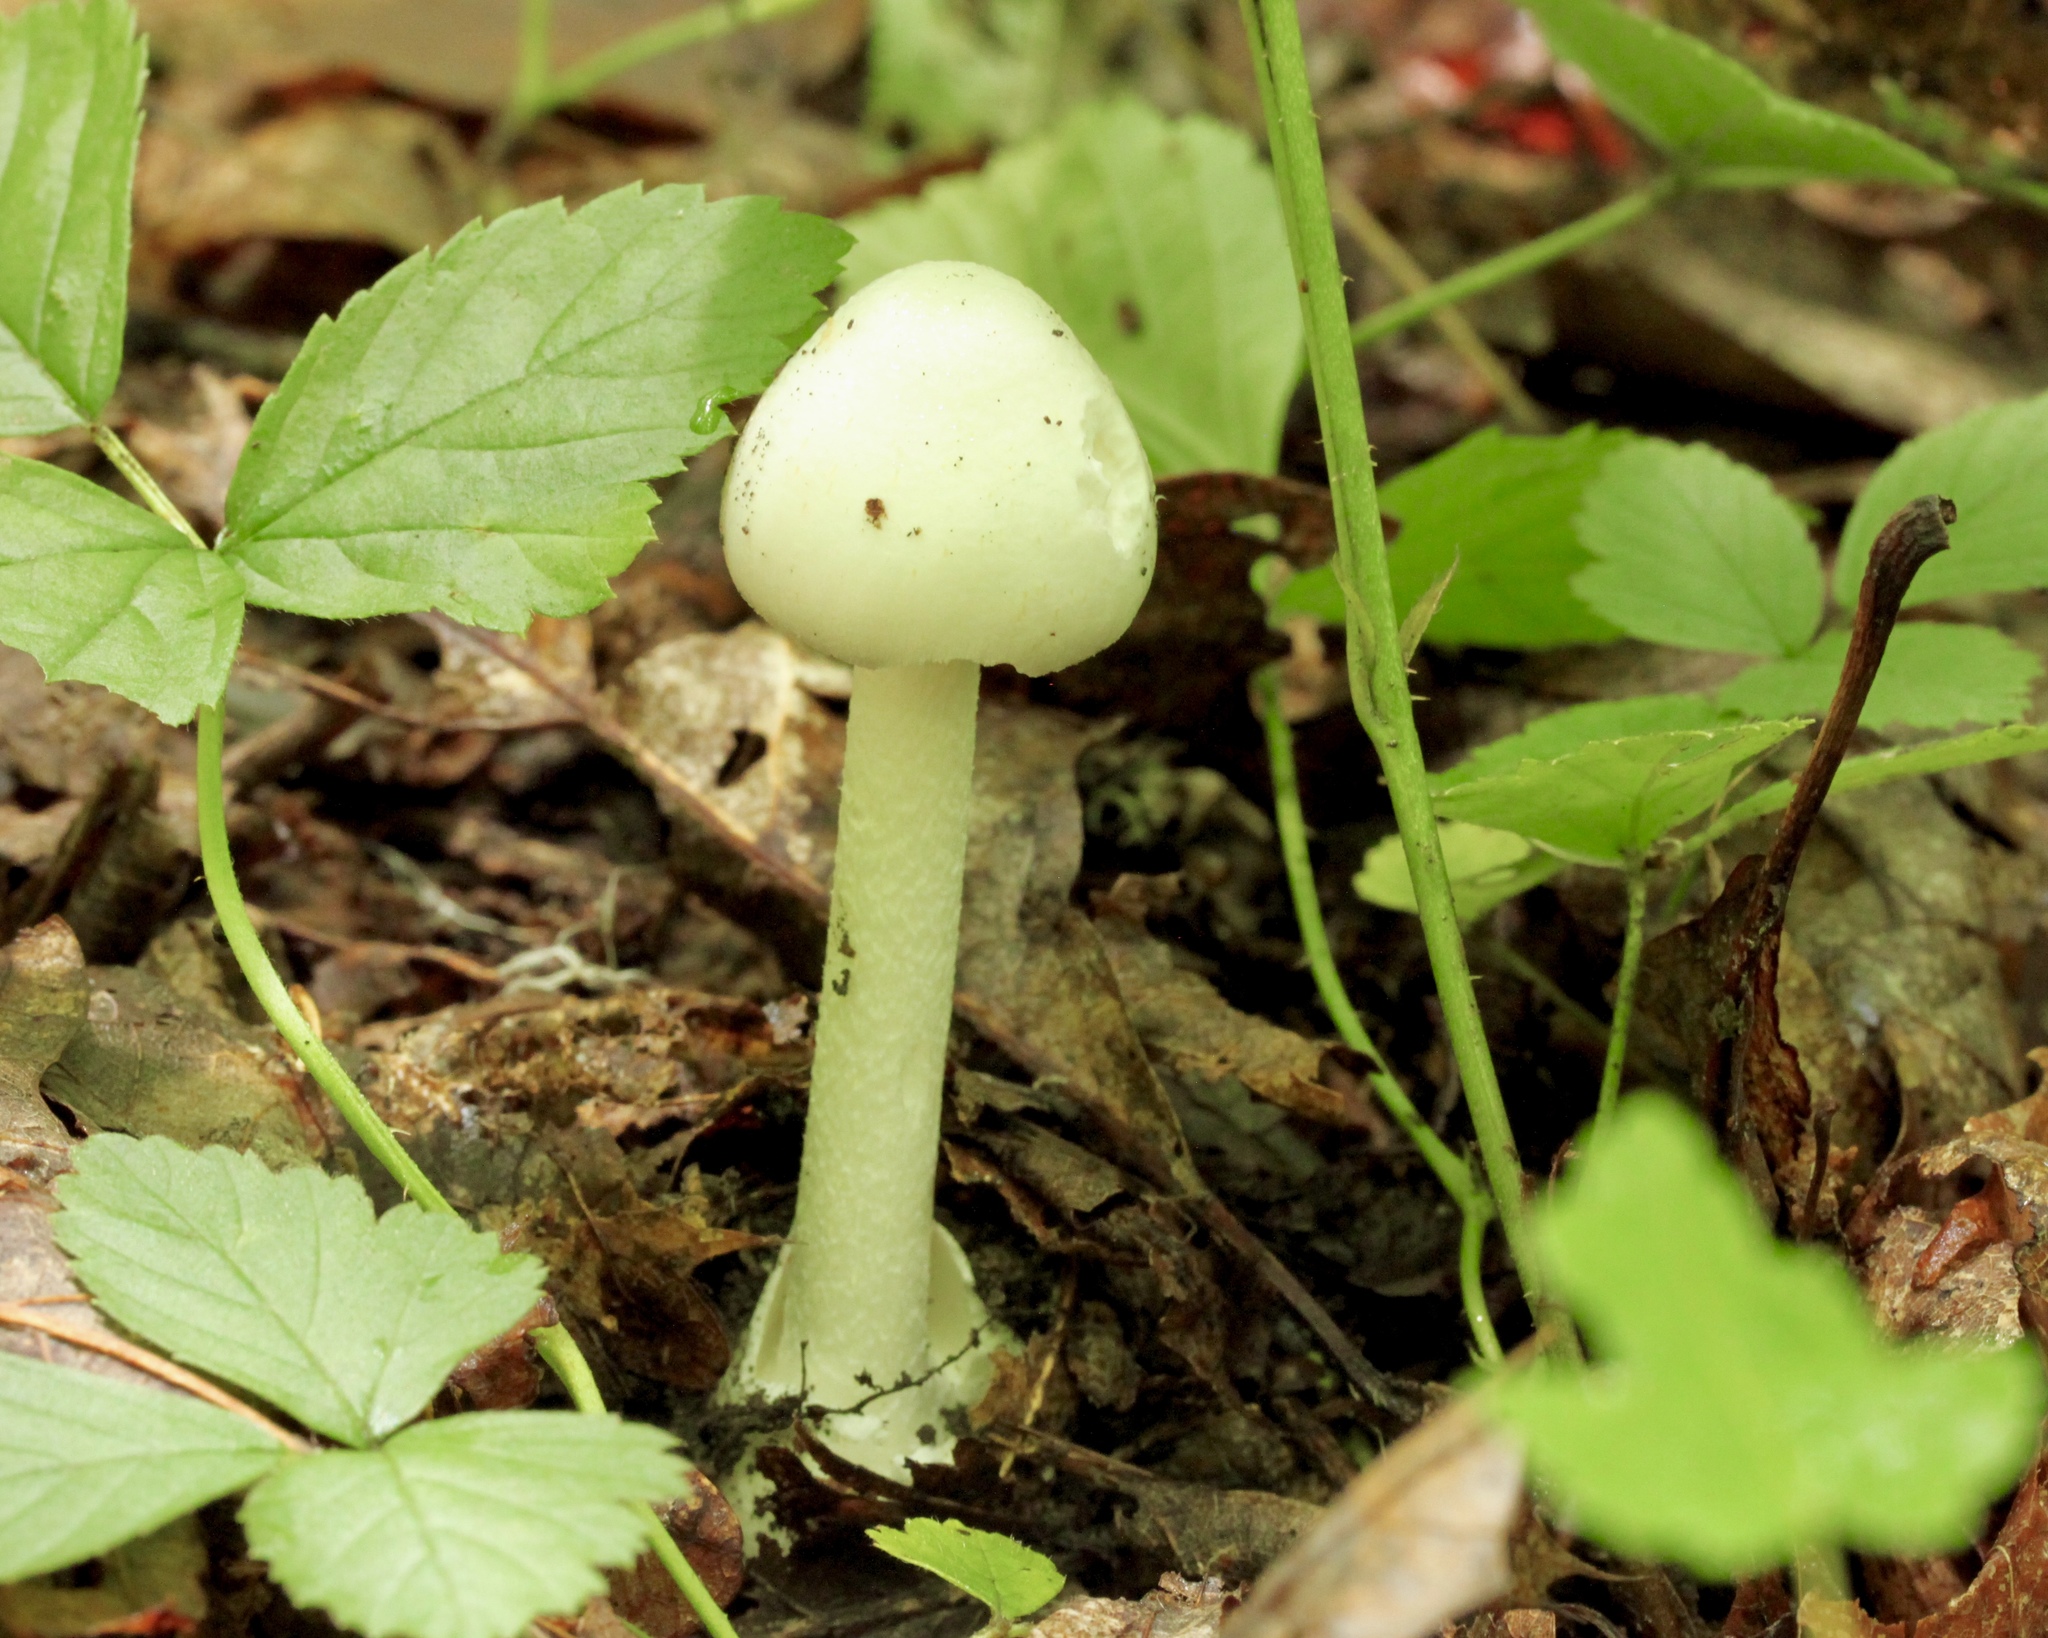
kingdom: Fungi
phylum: Basidiomycota
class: Agaricomycetes
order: Agaricales
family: Amanitaceae
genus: Amanita
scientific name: Amanita bisporigera
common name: Eastern north american destroying angel
